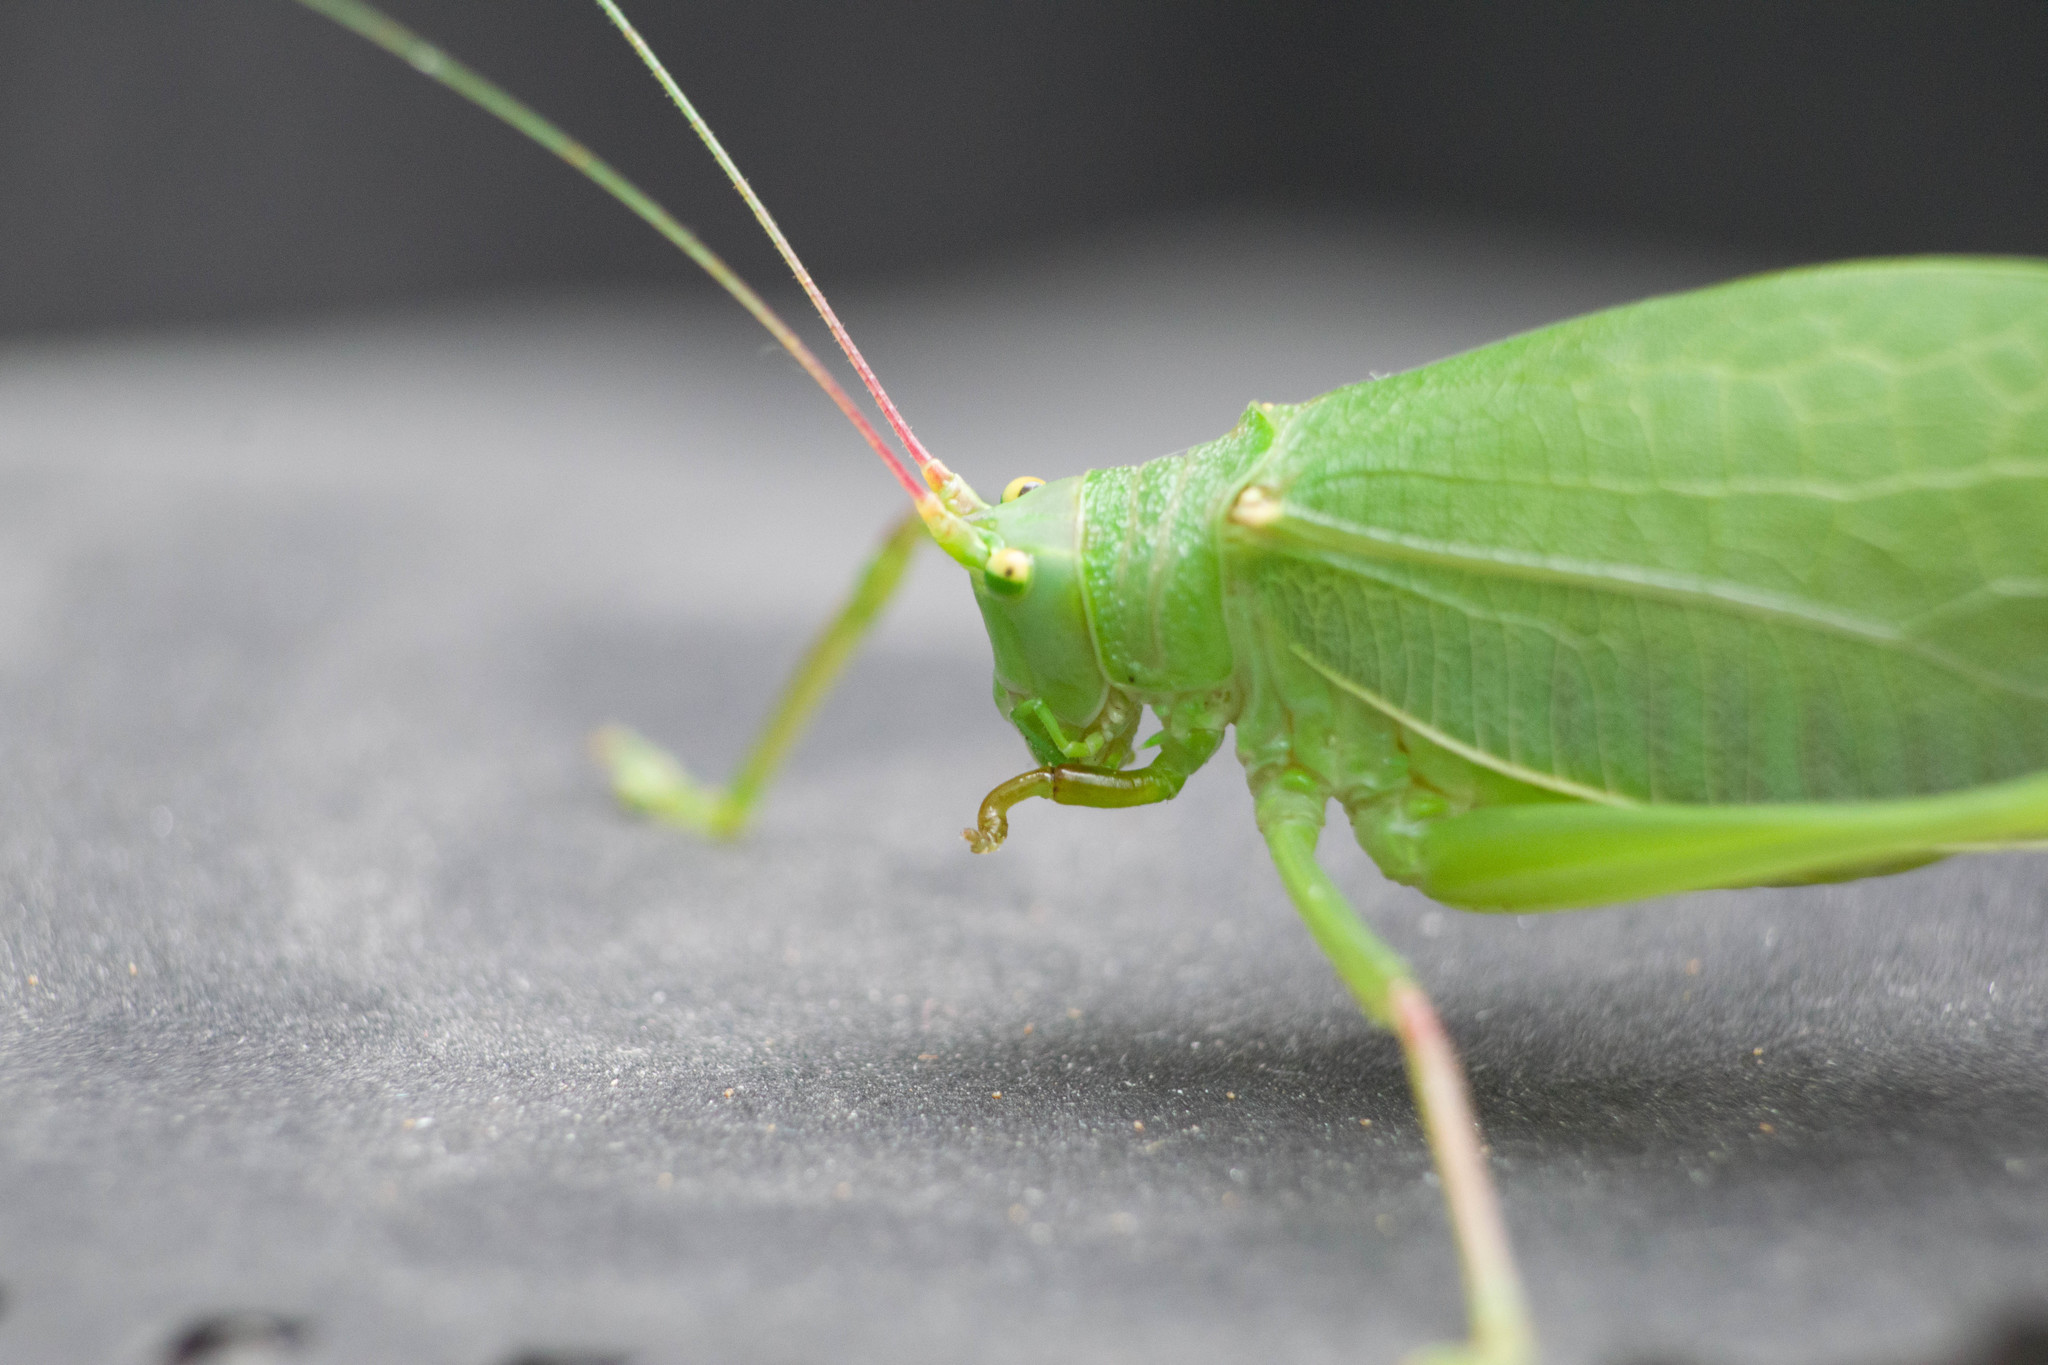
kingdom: Animalia
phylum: Arthropoda
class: Insecta
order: Orthoptera
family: Tettigoniidae
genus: Pterophylla
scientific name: Pterophylla camellifolia
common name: Common true katydid
